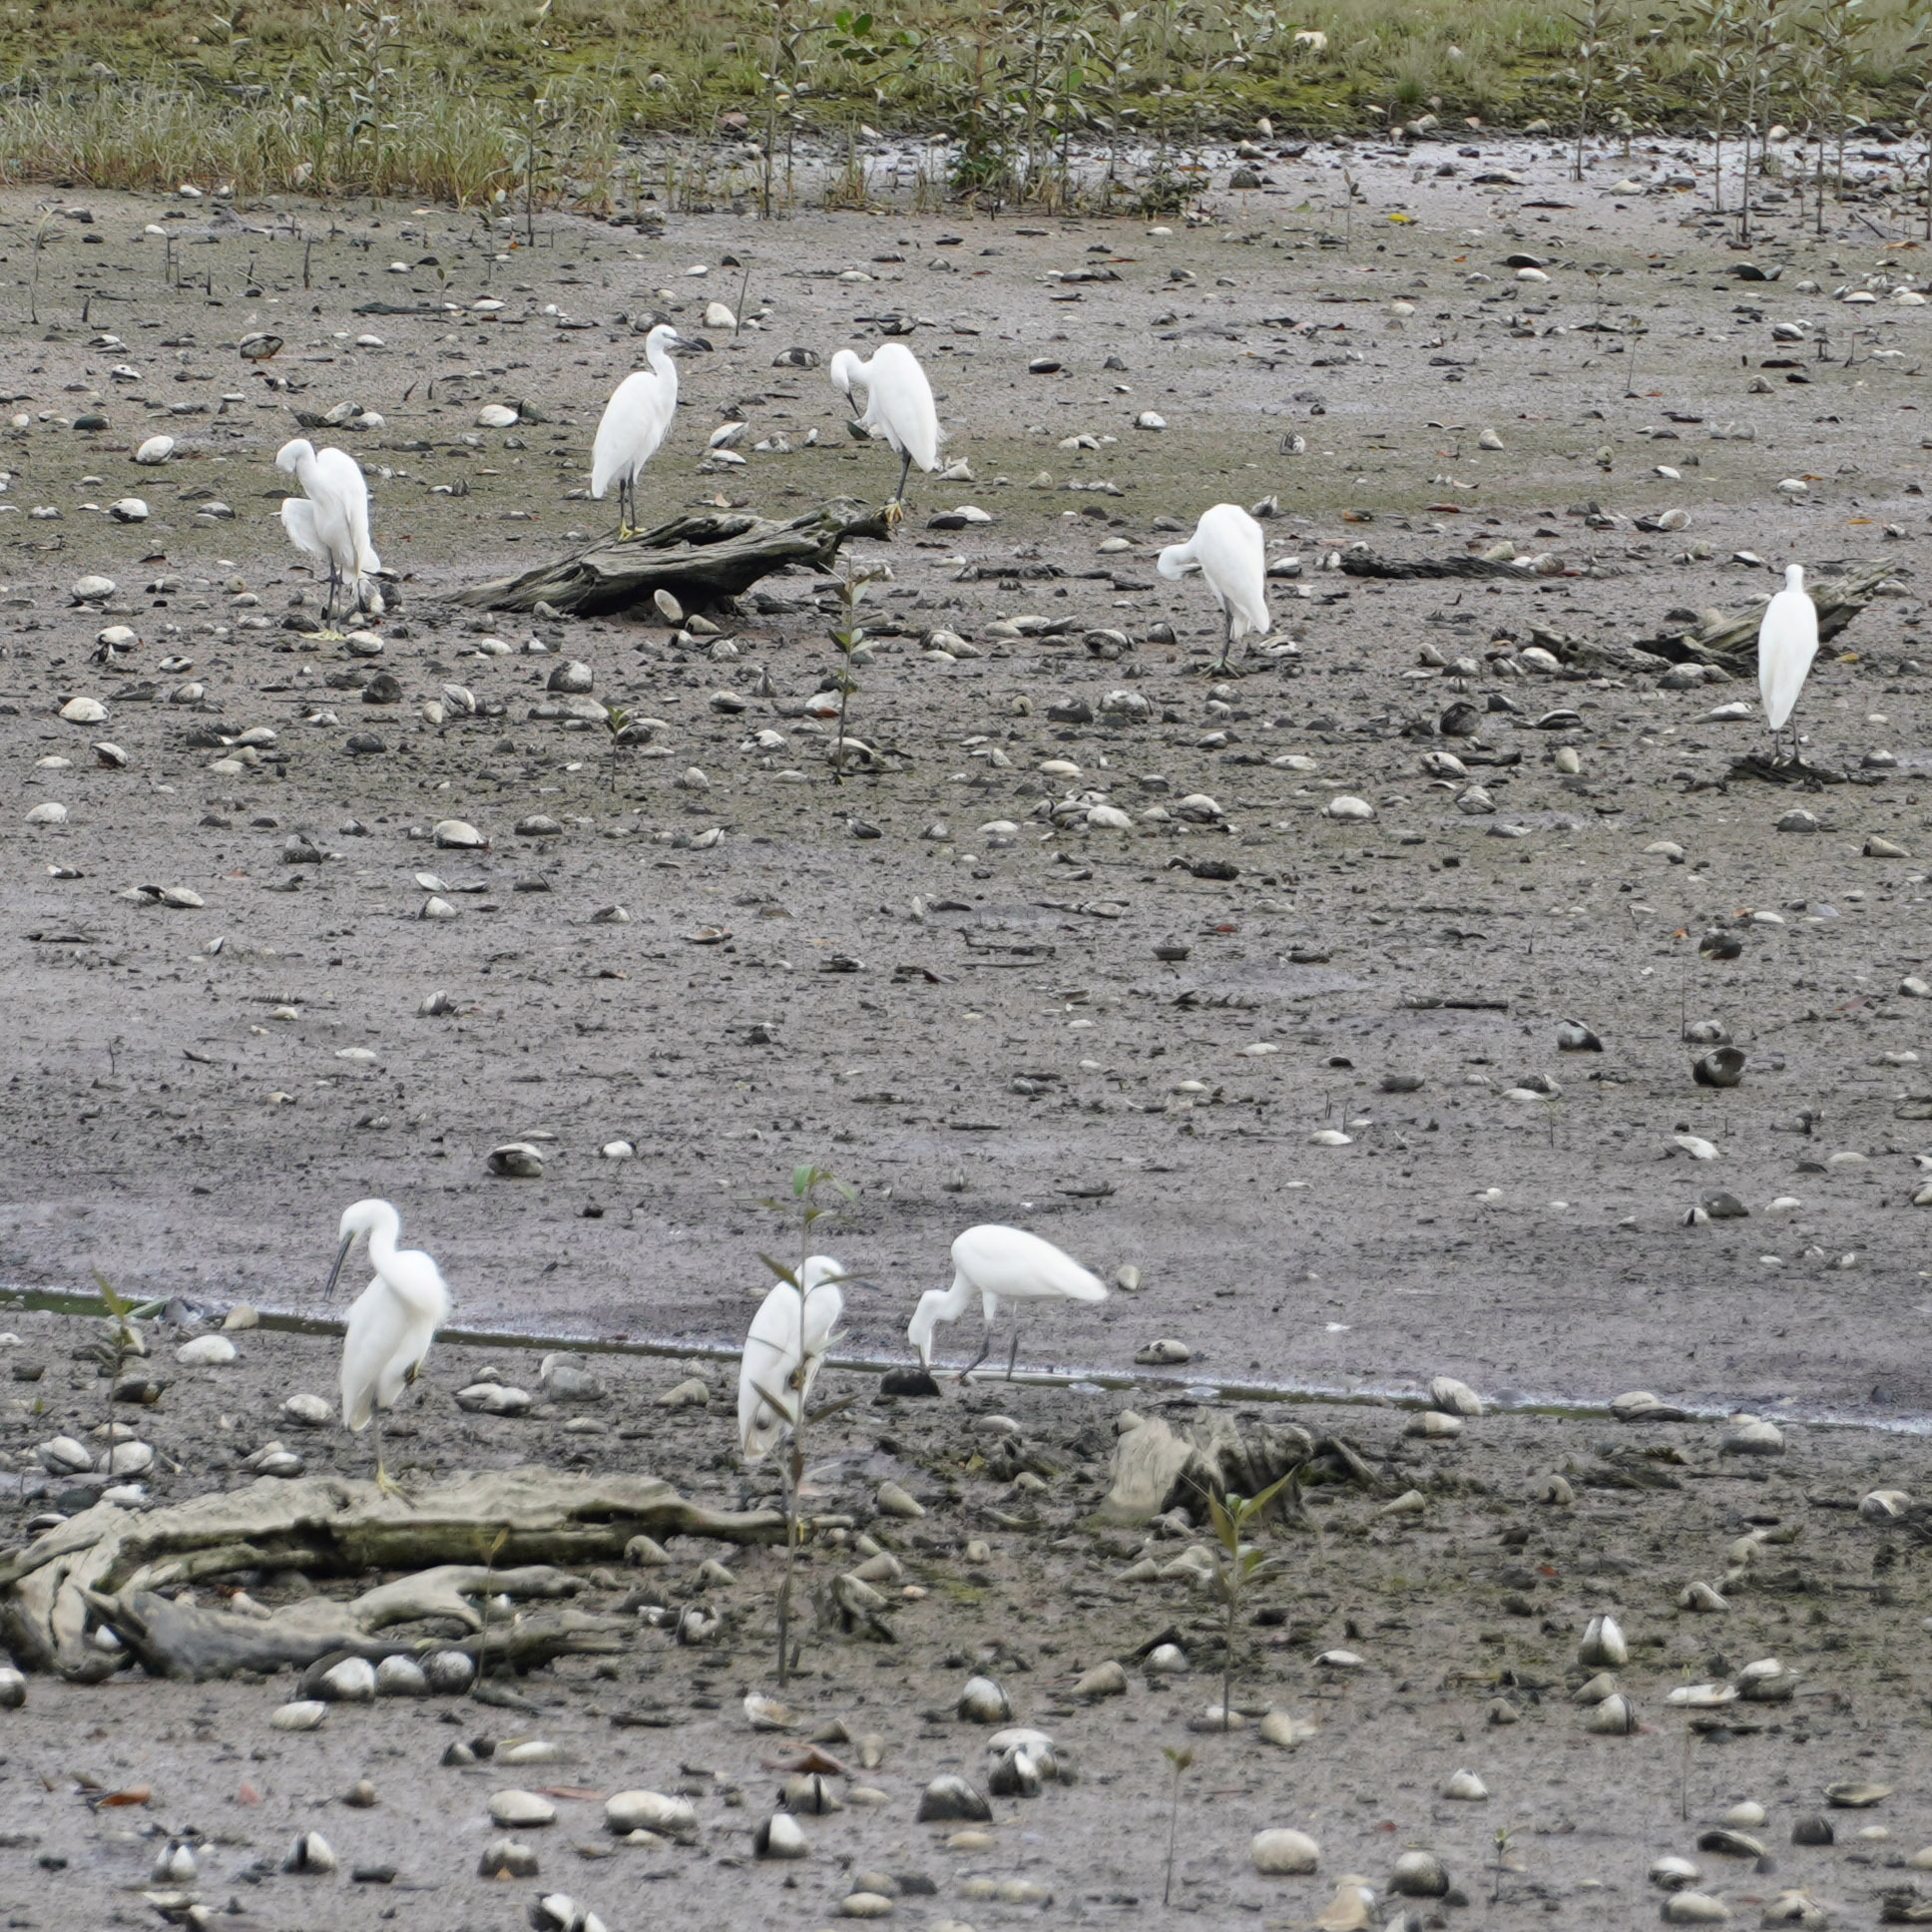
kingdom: Animalia
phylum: Chordata
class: Aves
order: Pelecaniformes
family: Ardeidae
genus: Egretta
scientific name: Egretta garzetta
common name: Little egret
